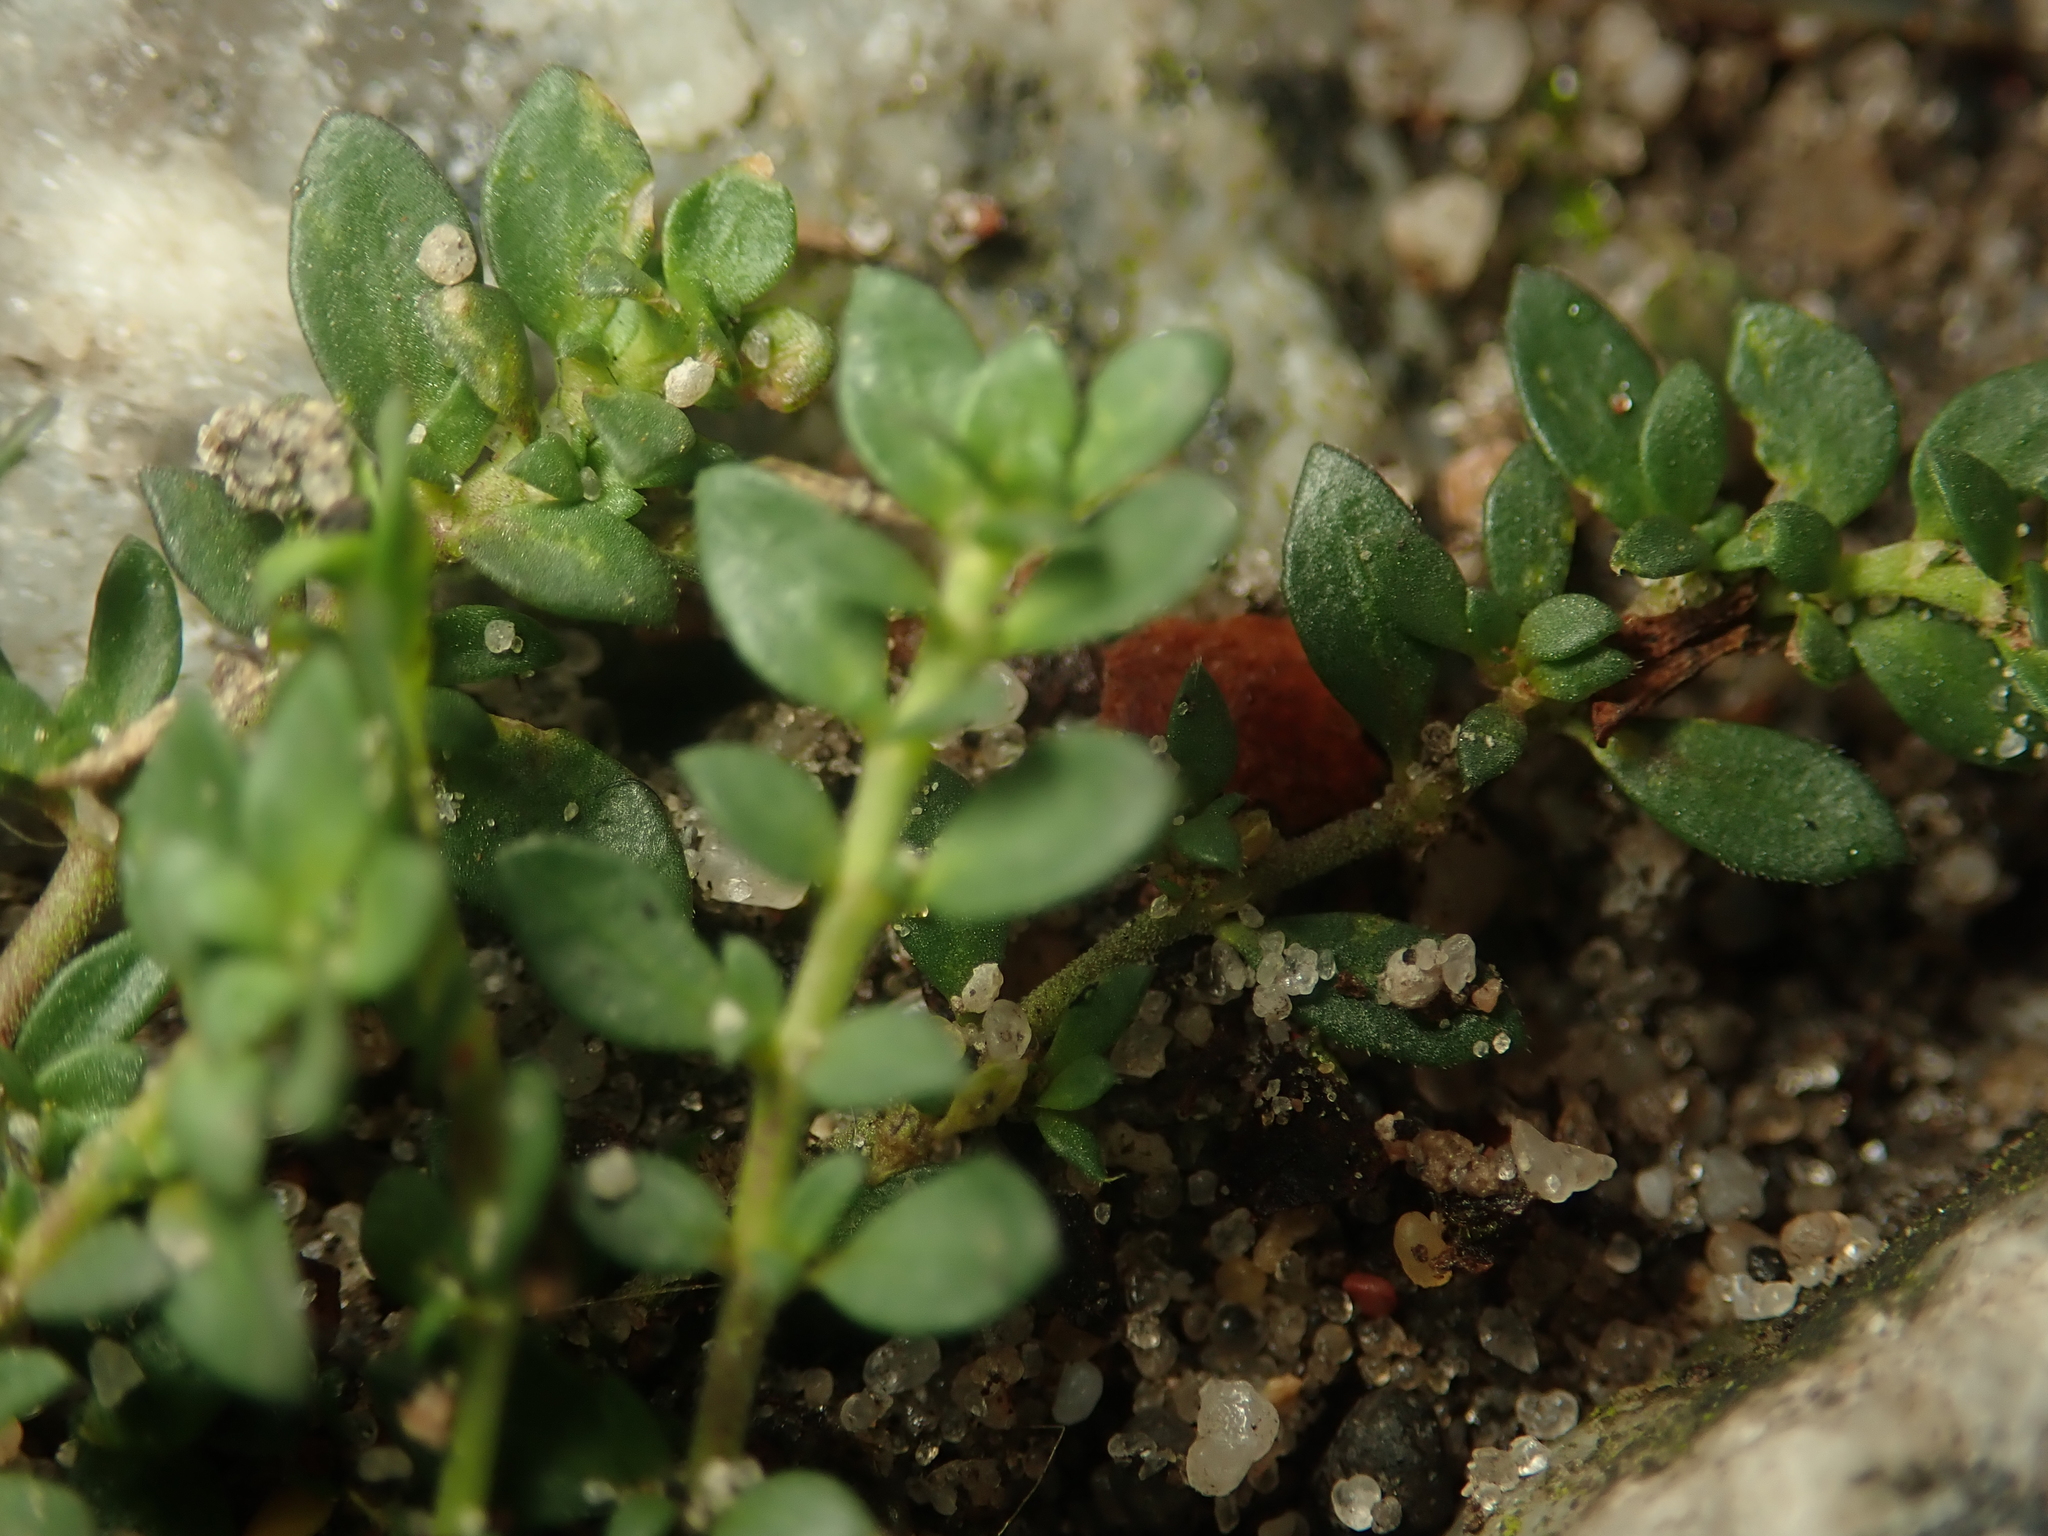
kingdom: Plantae
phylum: Tracheophyta
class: Magnoliopsida
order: Caryophyllales
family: Caryophyllaceae
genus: Herniaria
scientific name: Herniaria glabra
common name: Smooth rupturewort
